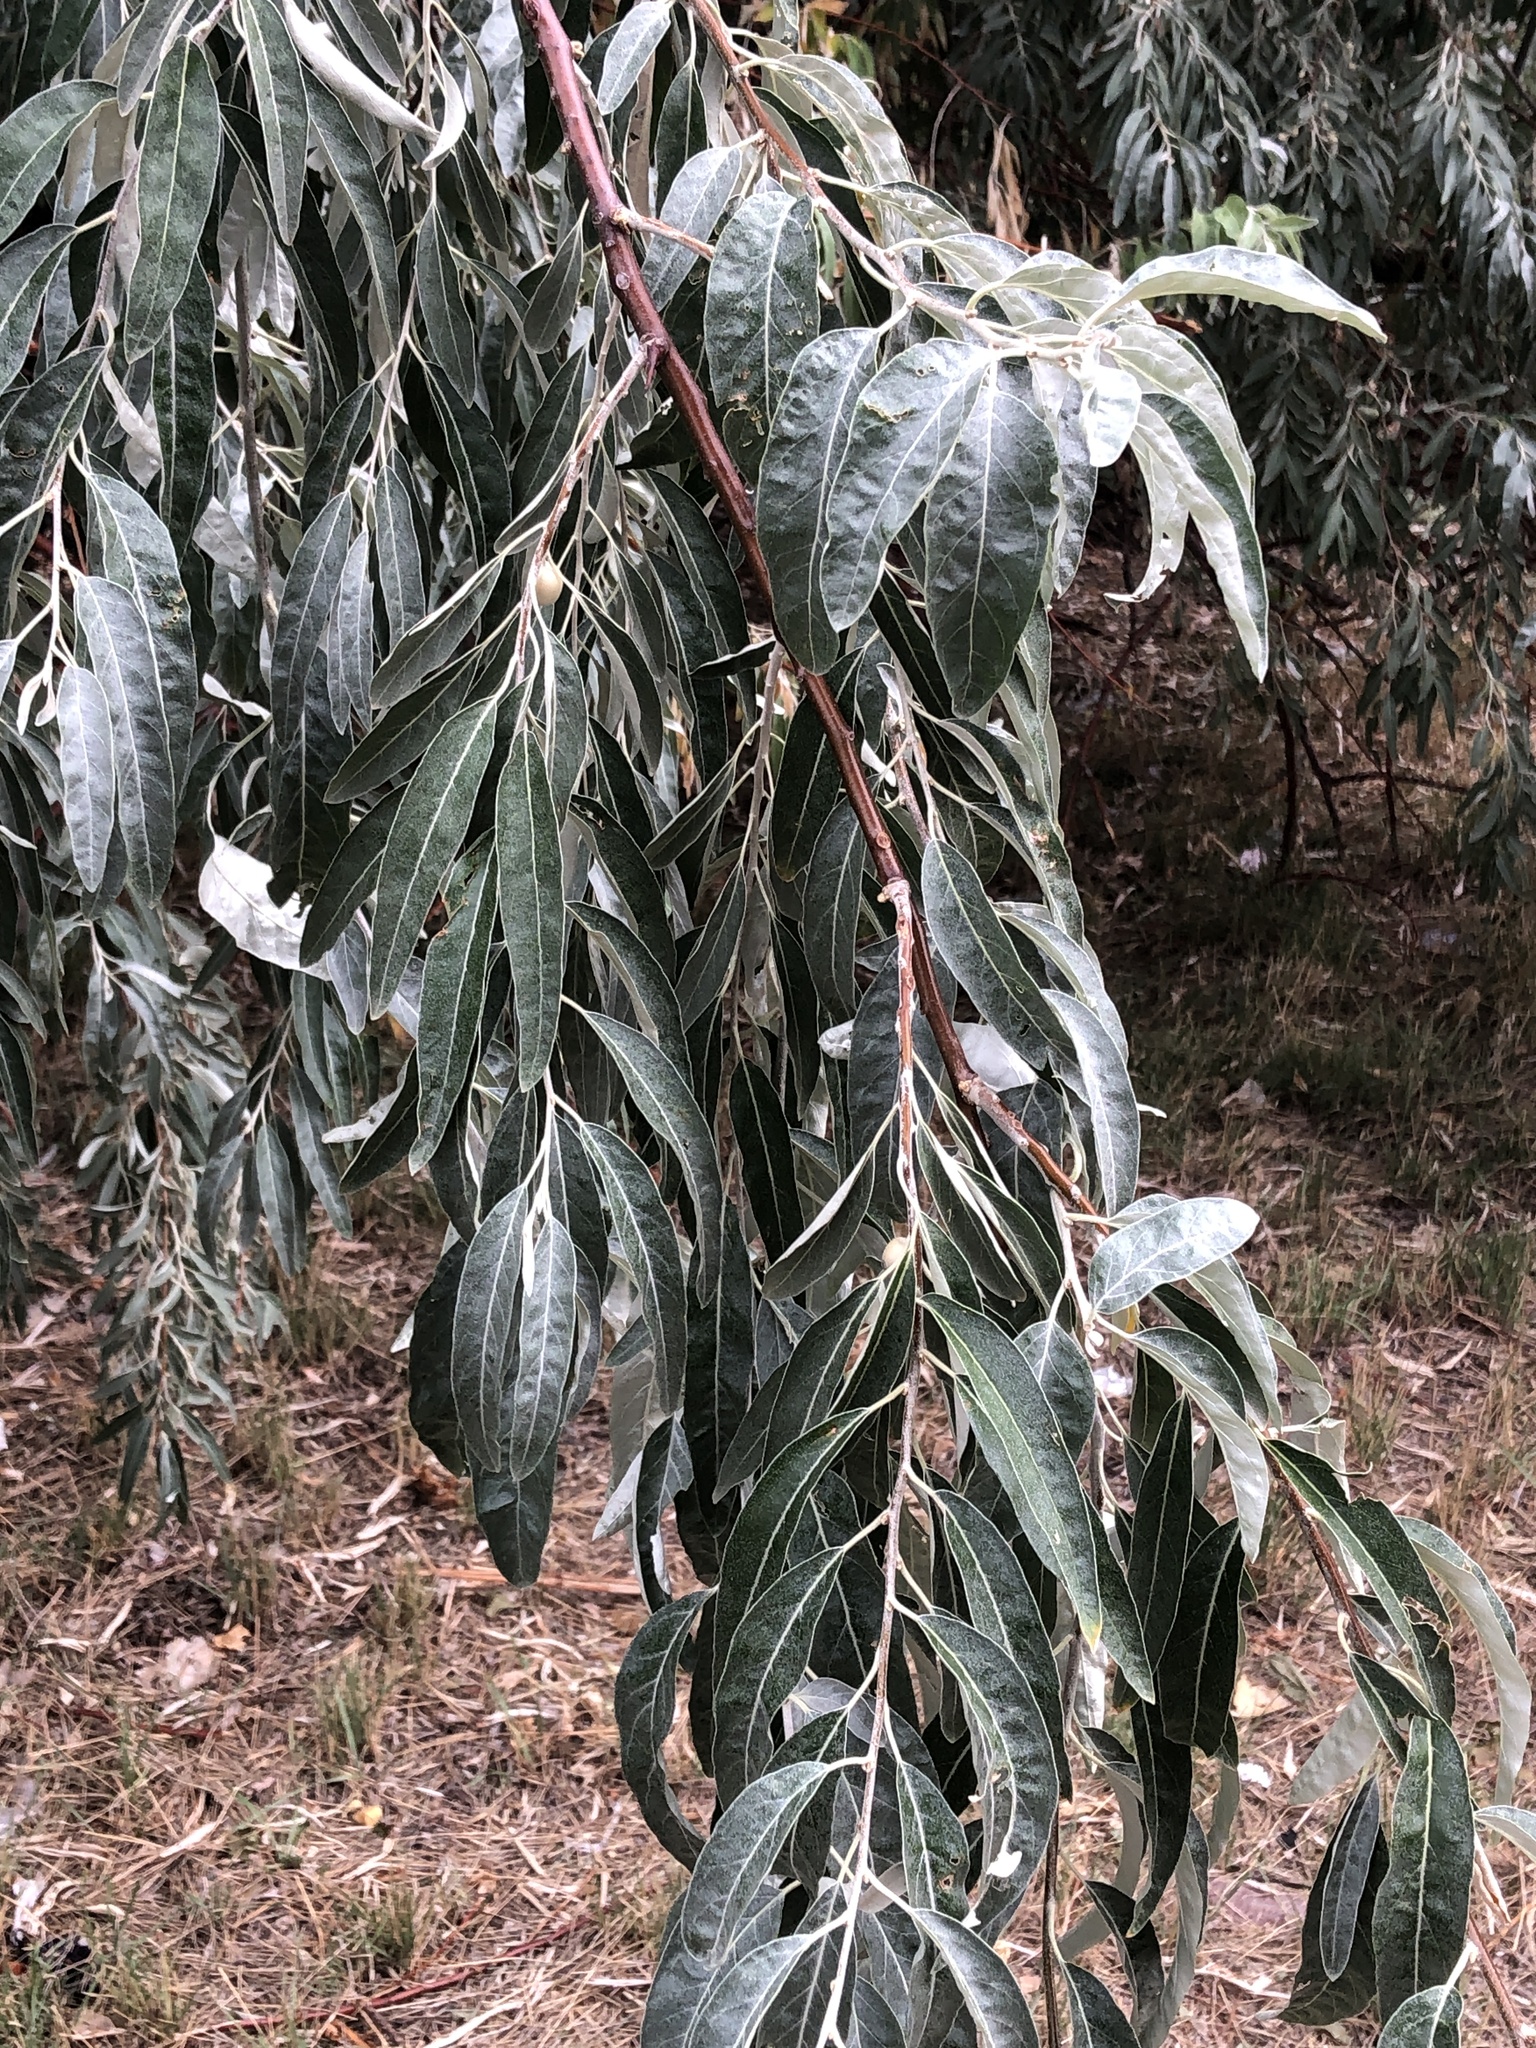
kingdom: Plantae
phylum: Tracheophyta
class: Magnoliopsida
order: Rosales
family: Elaeagnaceae
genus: Elaeagnus
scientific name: Elaeagnus angustifolia
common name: Russian olive
